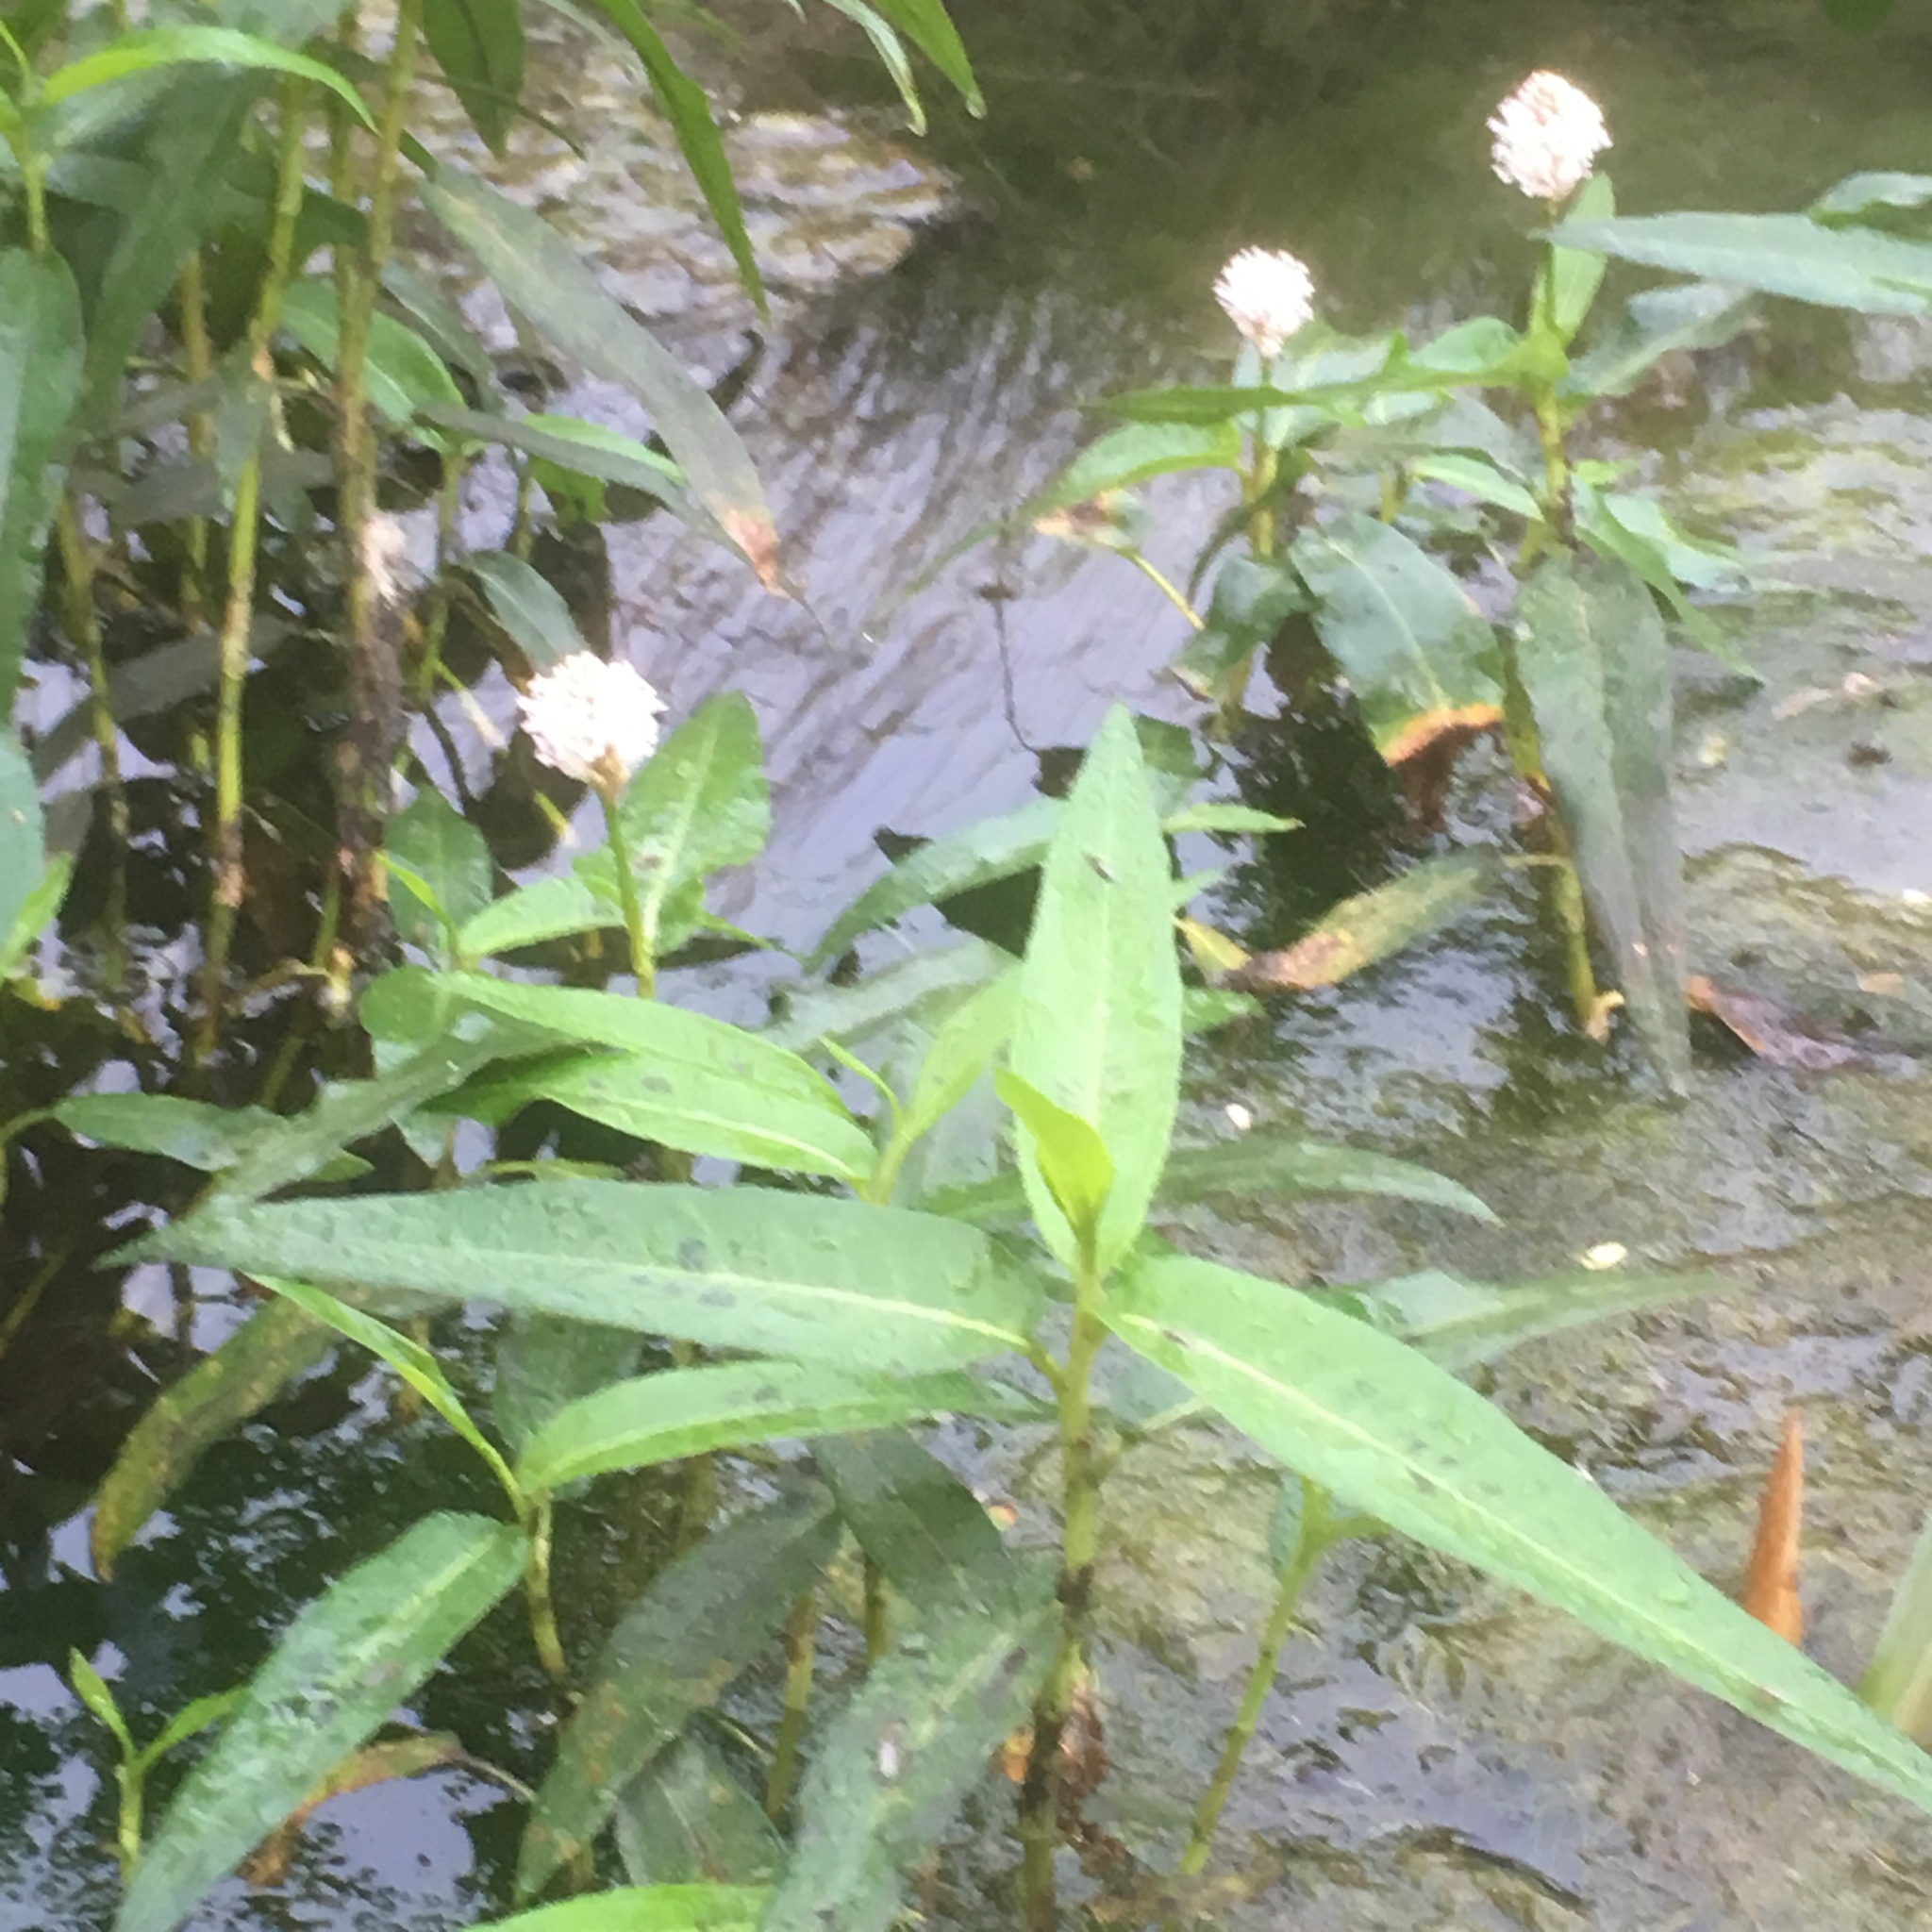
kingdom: Plantae
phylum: Tracheophyta
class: Magnoliopsida
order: Caryophyllales
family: Polygonaceae
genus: Persicaria
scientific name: Persicaria amphibia
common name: Amphibious bistort
